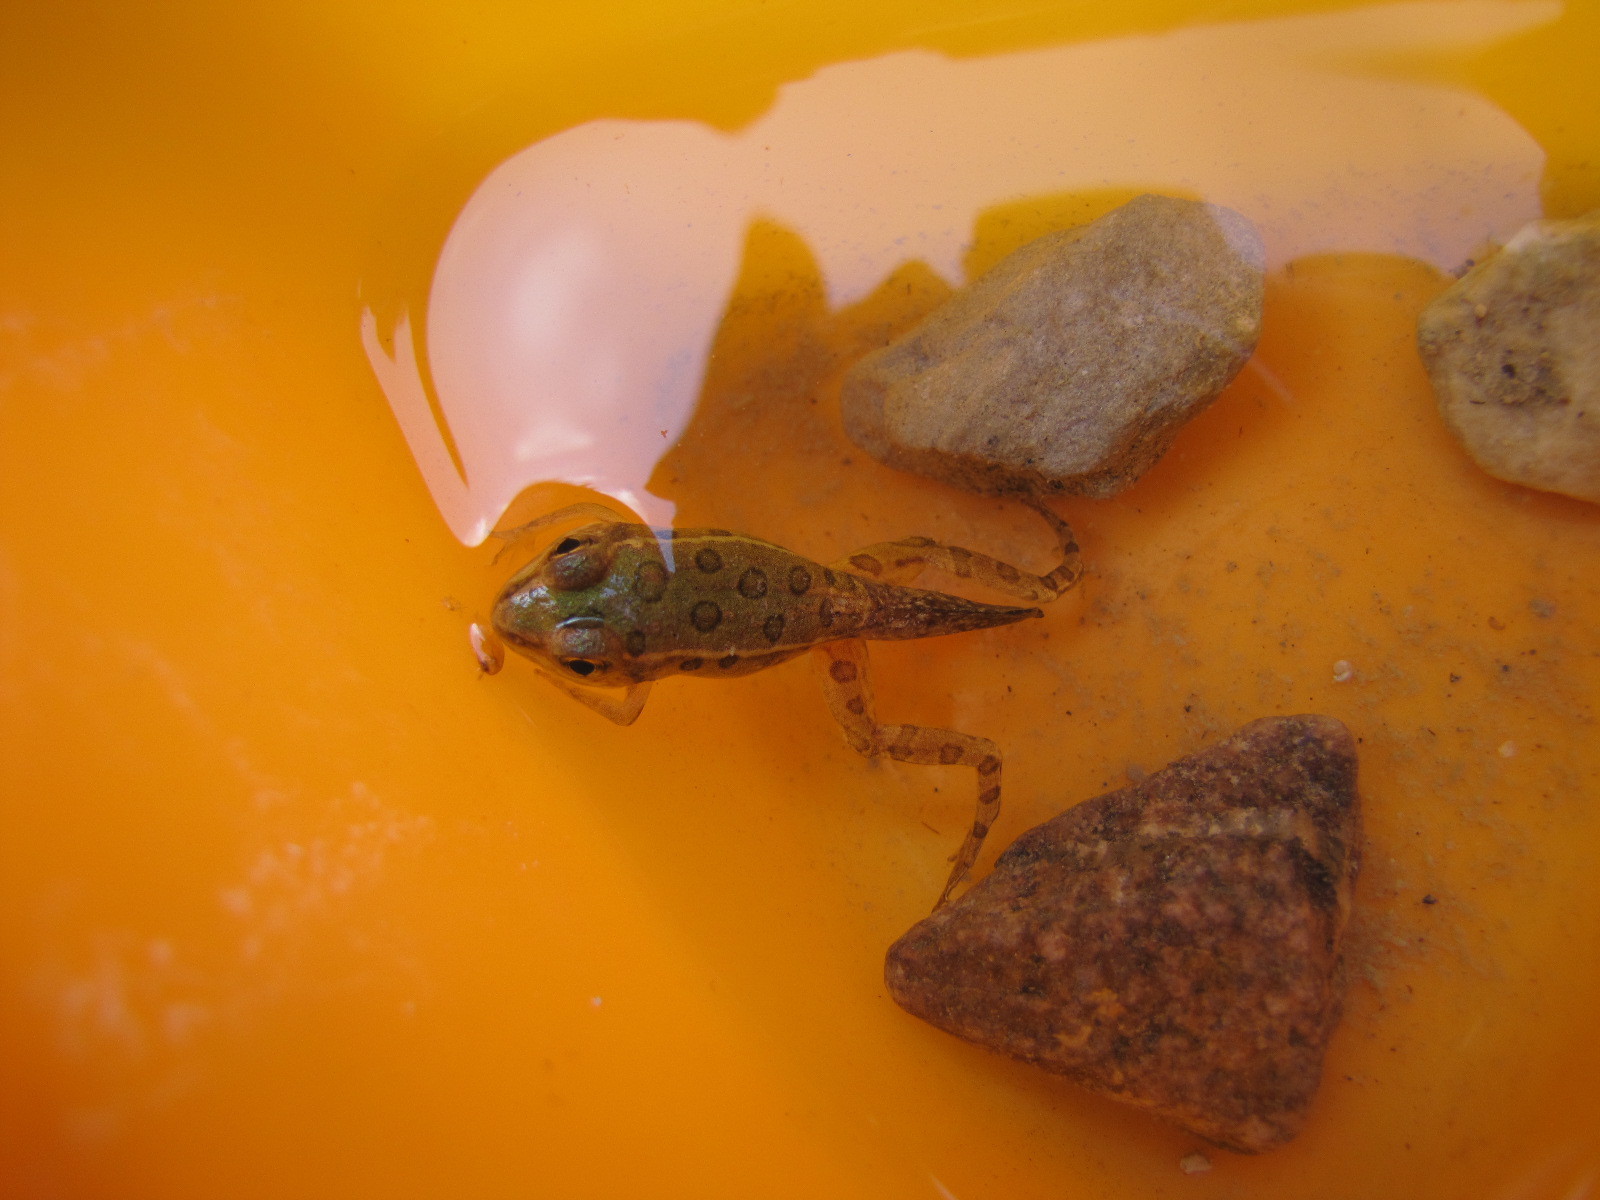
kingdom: Animalia
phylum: Chordata
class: Amphibia
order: Anura
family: Ranidae
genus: Lithobates
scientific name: Lithobates pipiens
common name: Northern leopard frog
